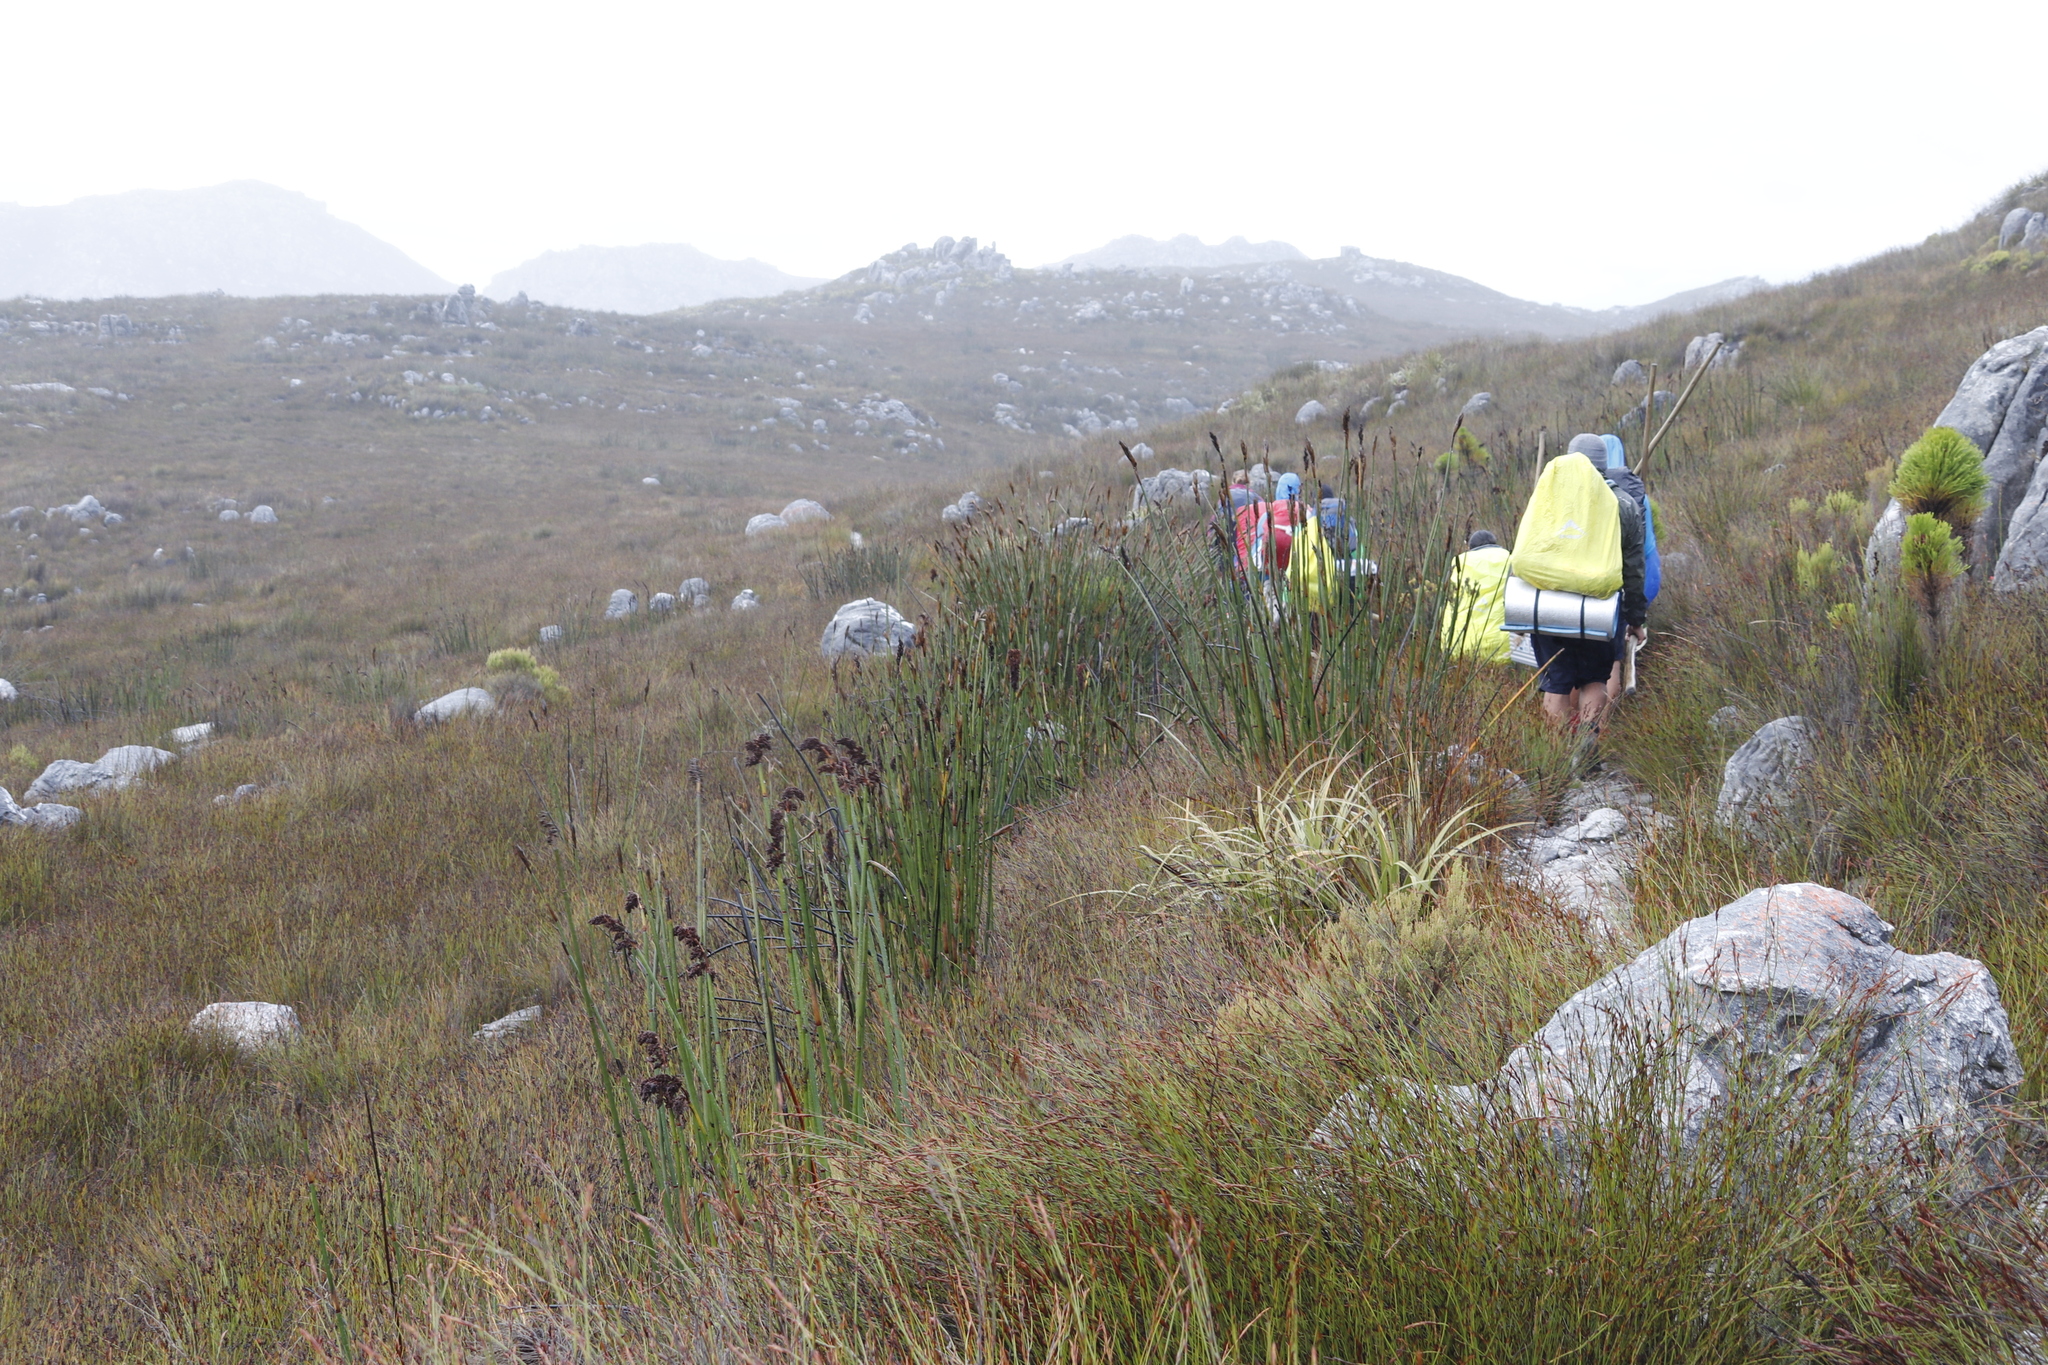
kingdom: Plantae
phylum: Tracheophyta
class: Liliopsida
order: Poales
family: Restionaceae
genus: Elegia
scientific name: Elegia mucronata
